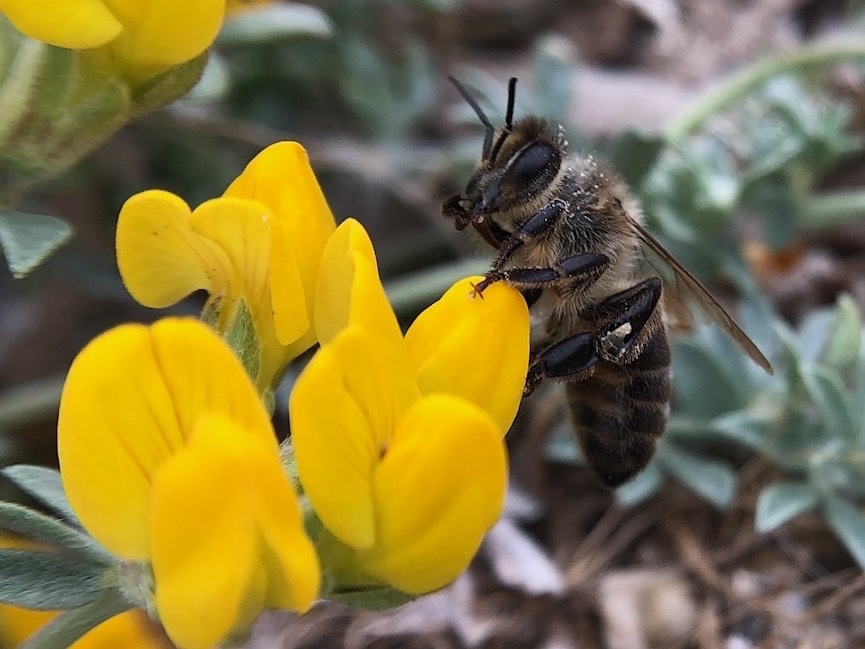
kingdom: Animalia
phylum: Arthropoda
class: Insecta
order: Hymenoptera
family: Apidae
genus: Apis
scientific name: Apis mellifera
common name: Honey bee
